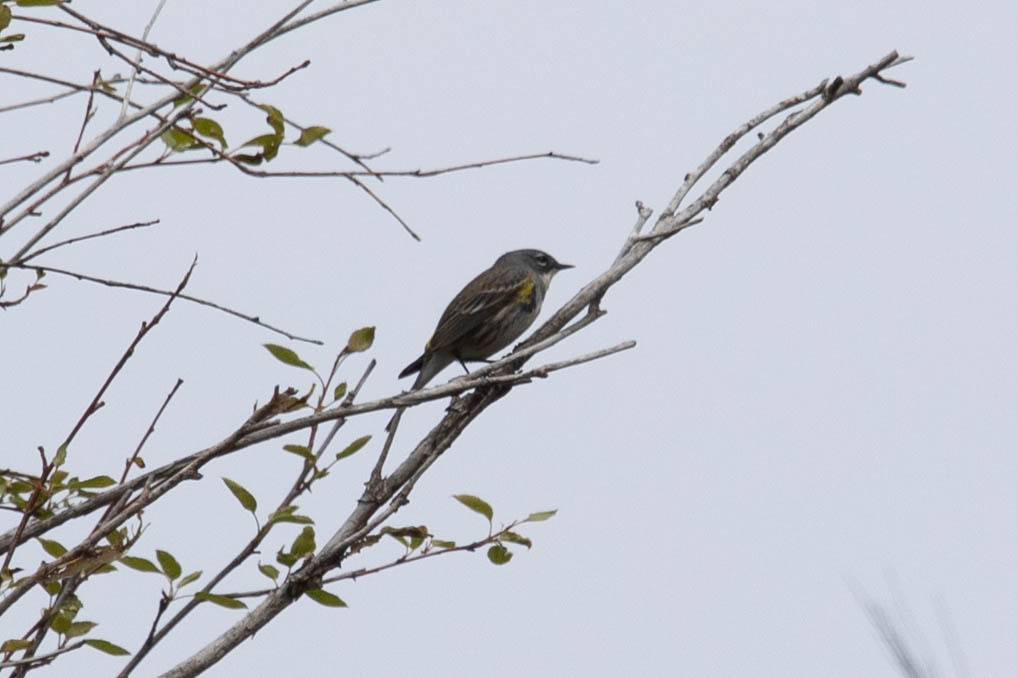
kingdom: Animalia
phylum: Chordata
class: Aves
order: Passeriformes
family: Parulidae
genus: Setophaga
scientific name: Setophaga coronata
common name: Myrtle warbler
